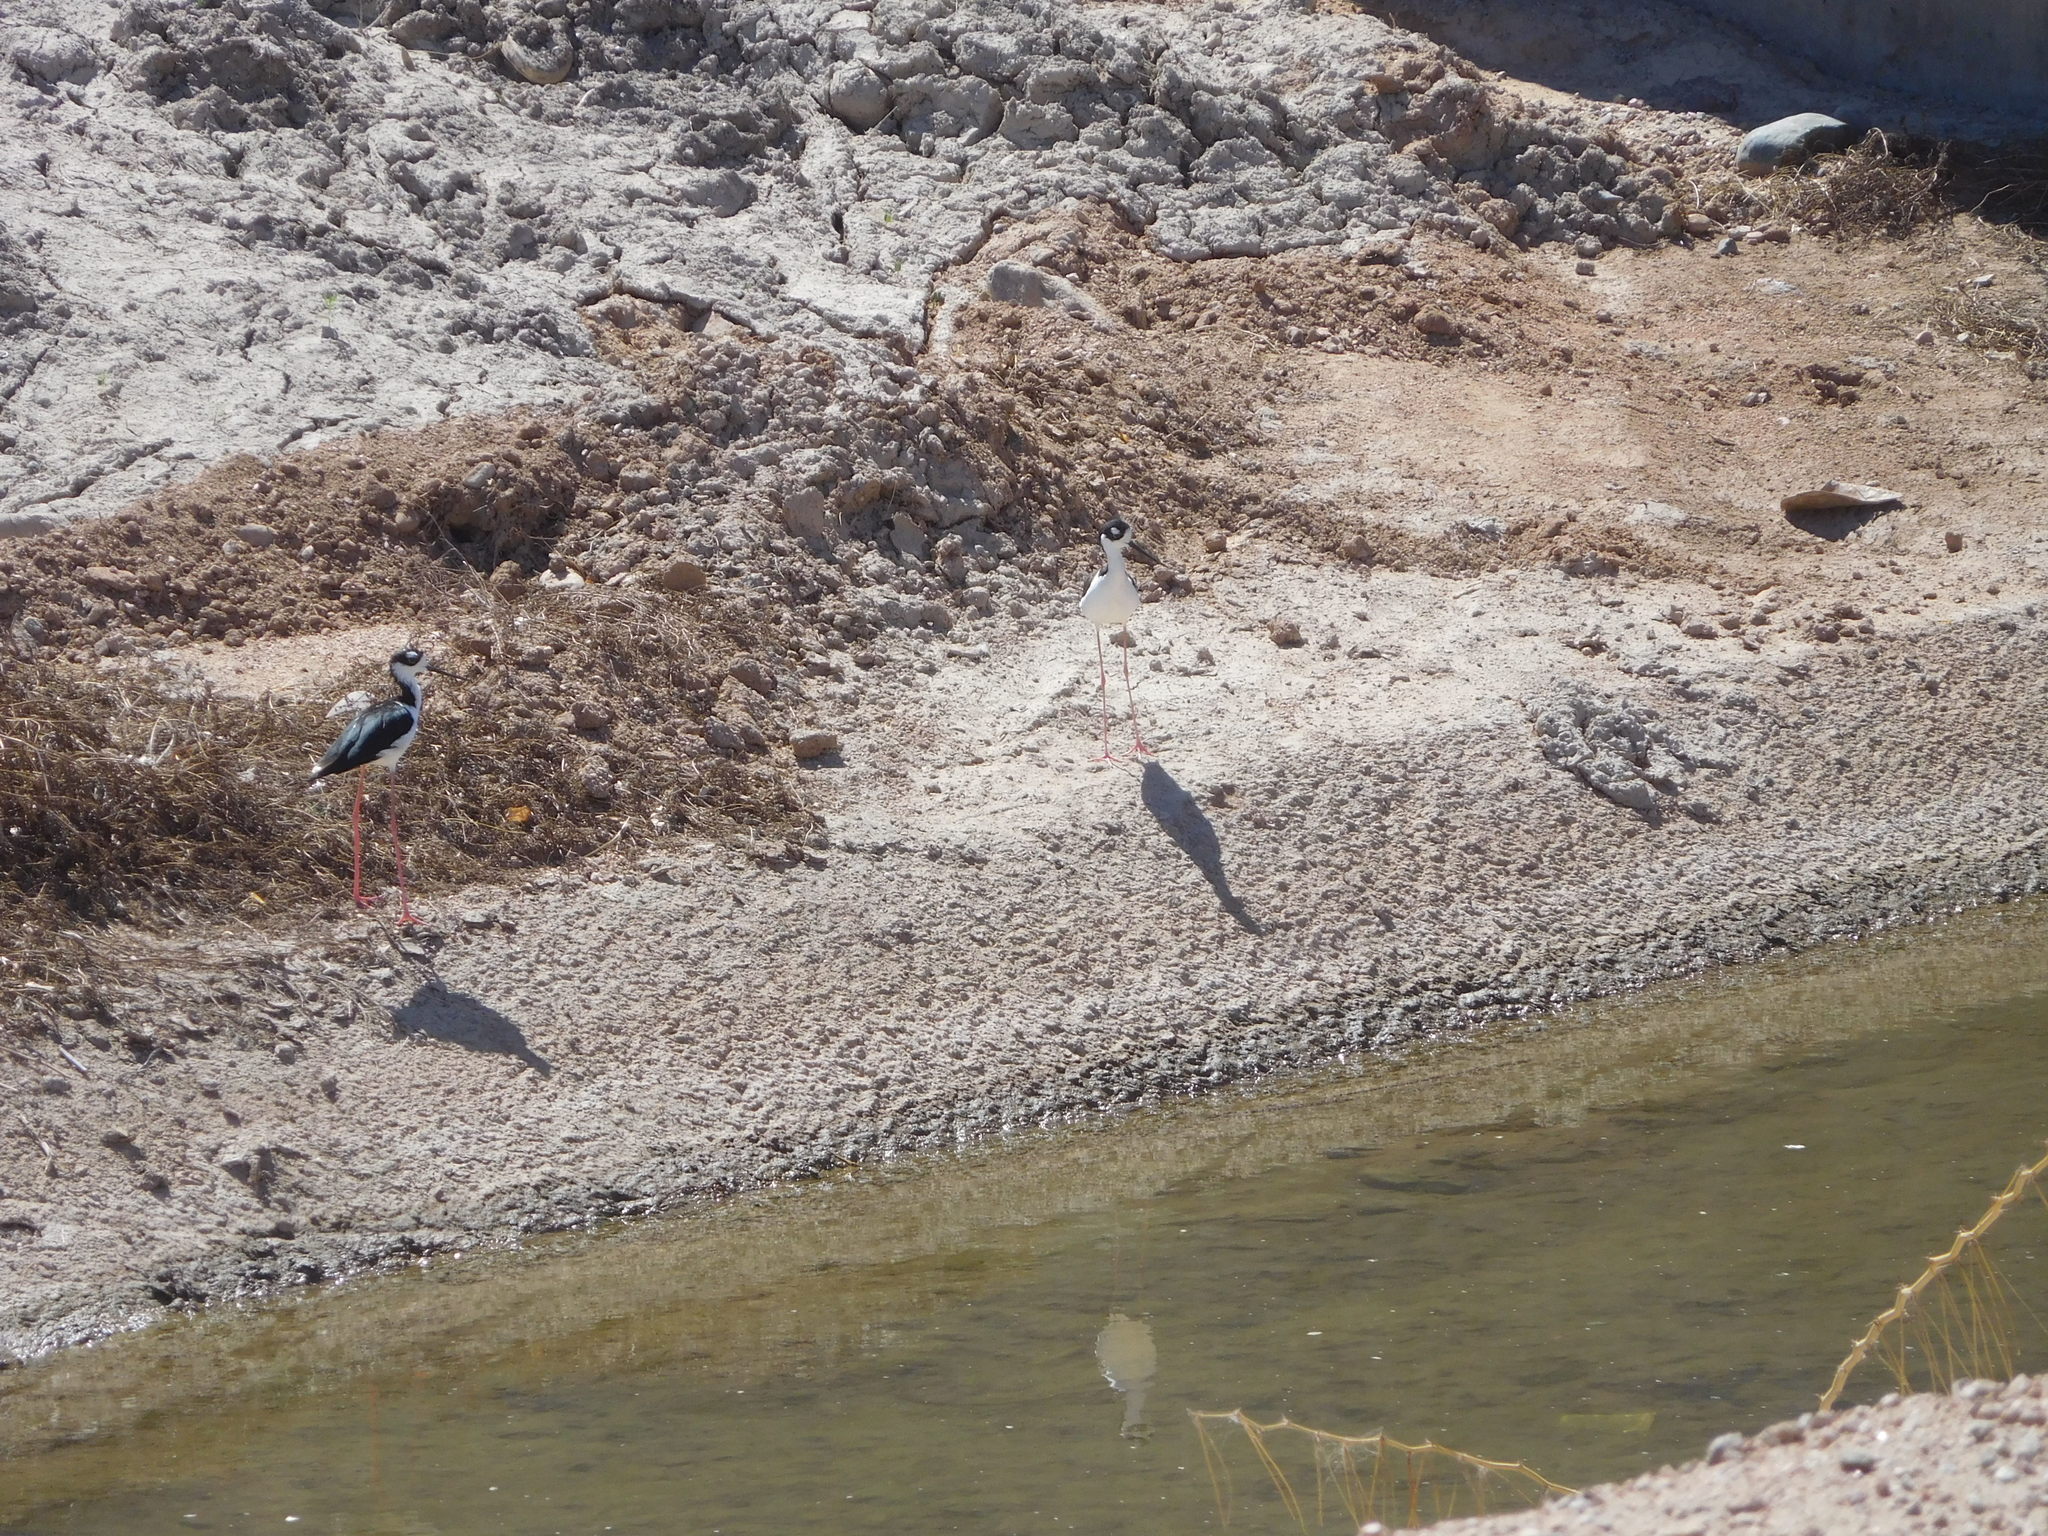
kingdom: Animalia
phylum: Chordata
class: Aves
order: Charadriiformes
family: Recurvirostridae
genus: Himantopus
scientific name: Himantopus mexicanus
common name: Black-necked stilt
